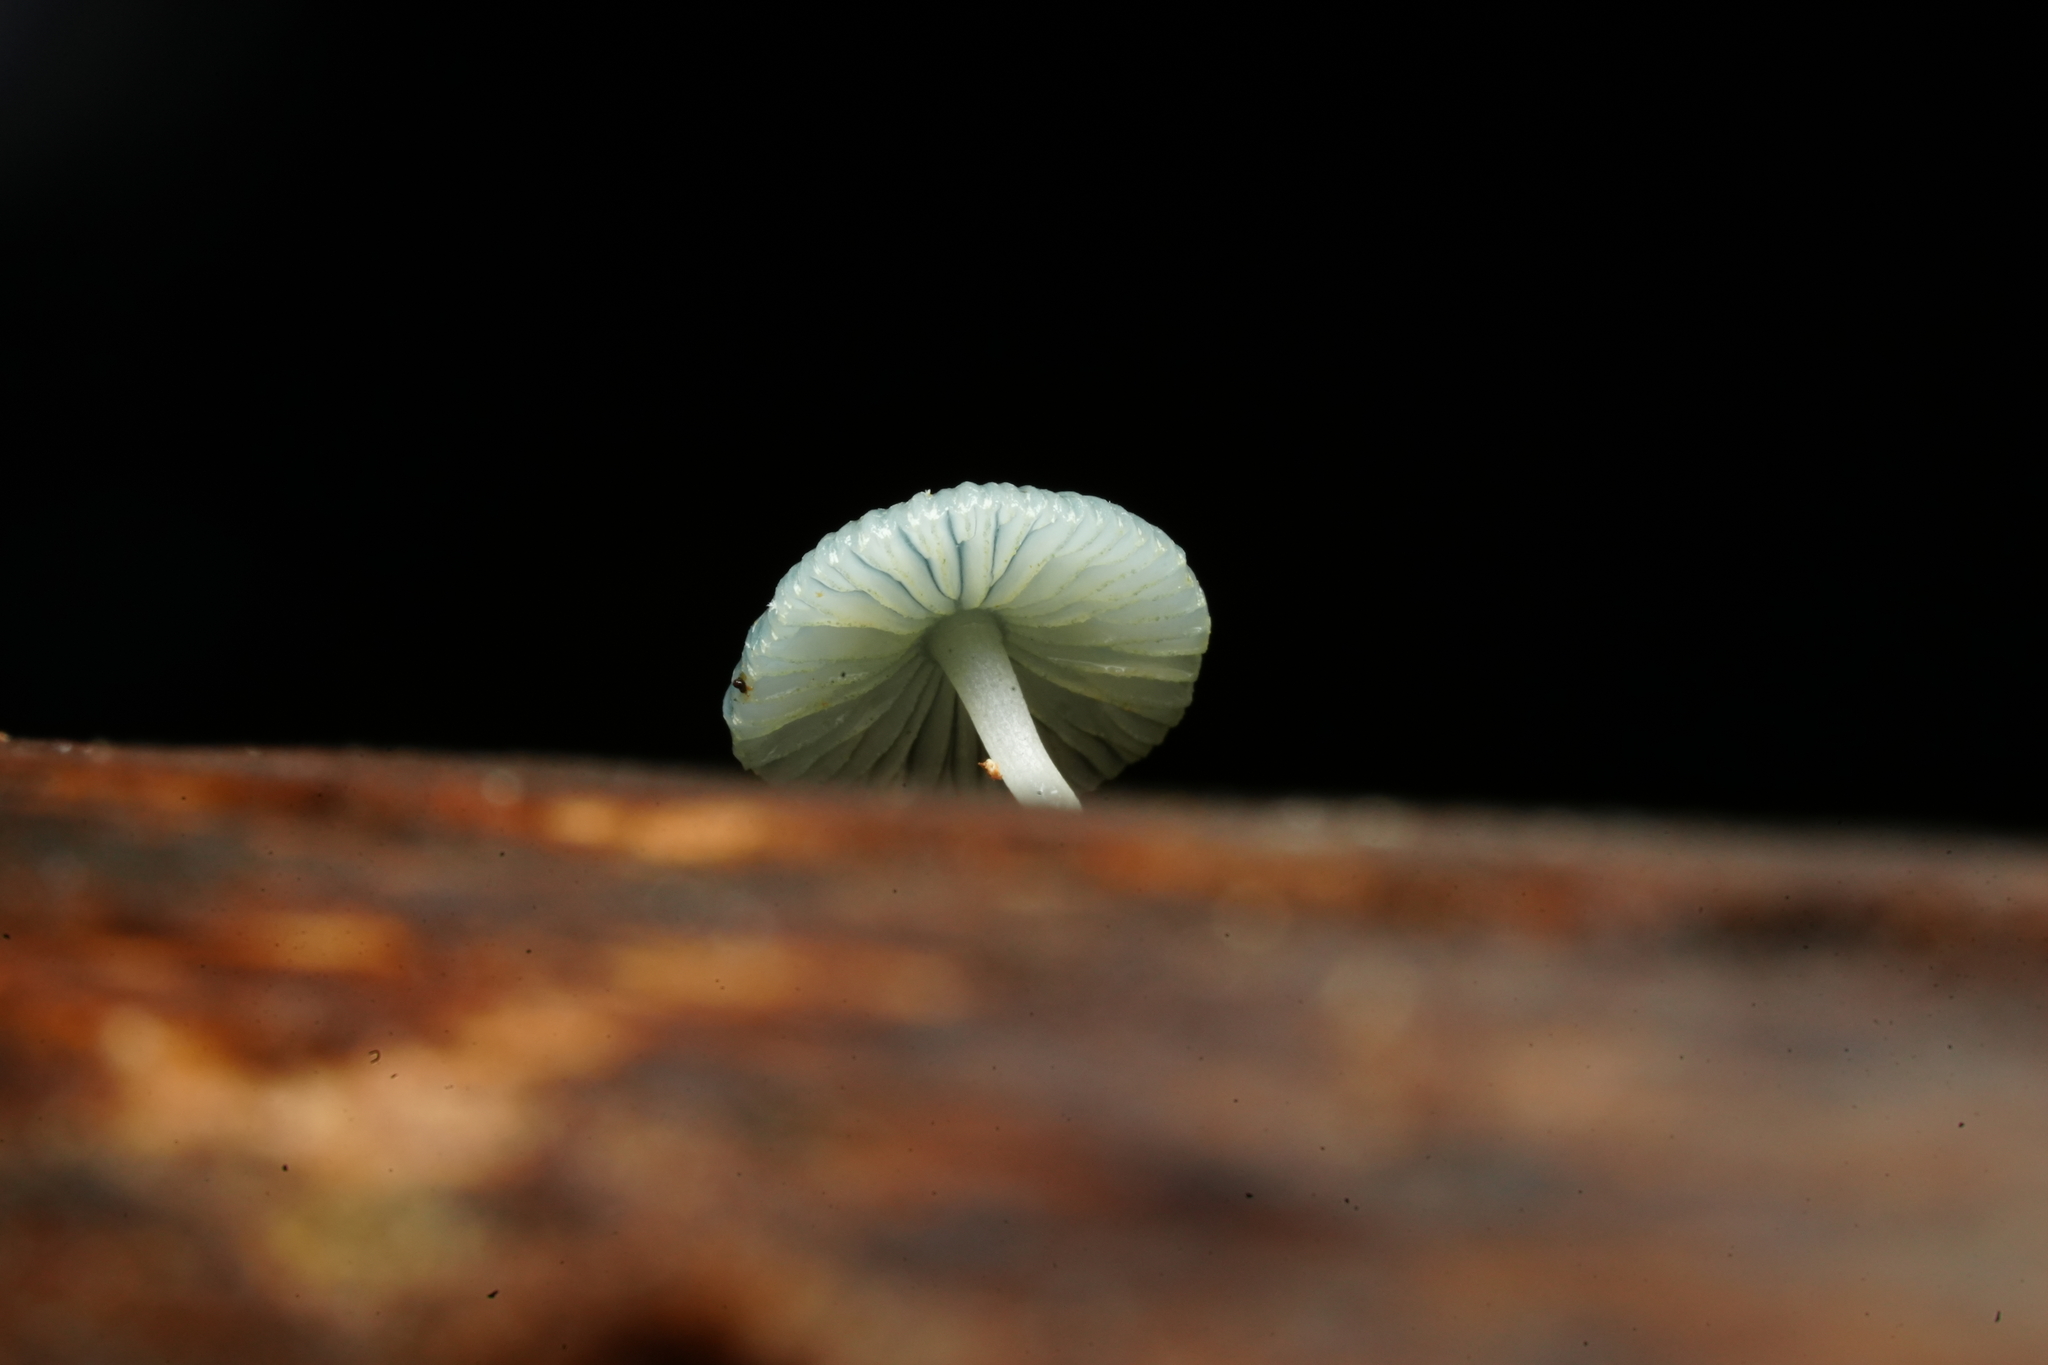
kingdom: Fungi
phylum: Basidiomycota
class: Agaricomycetes
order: Agaricales
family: Mycenaceae
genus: Mycena
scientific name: Mycena interrupta
